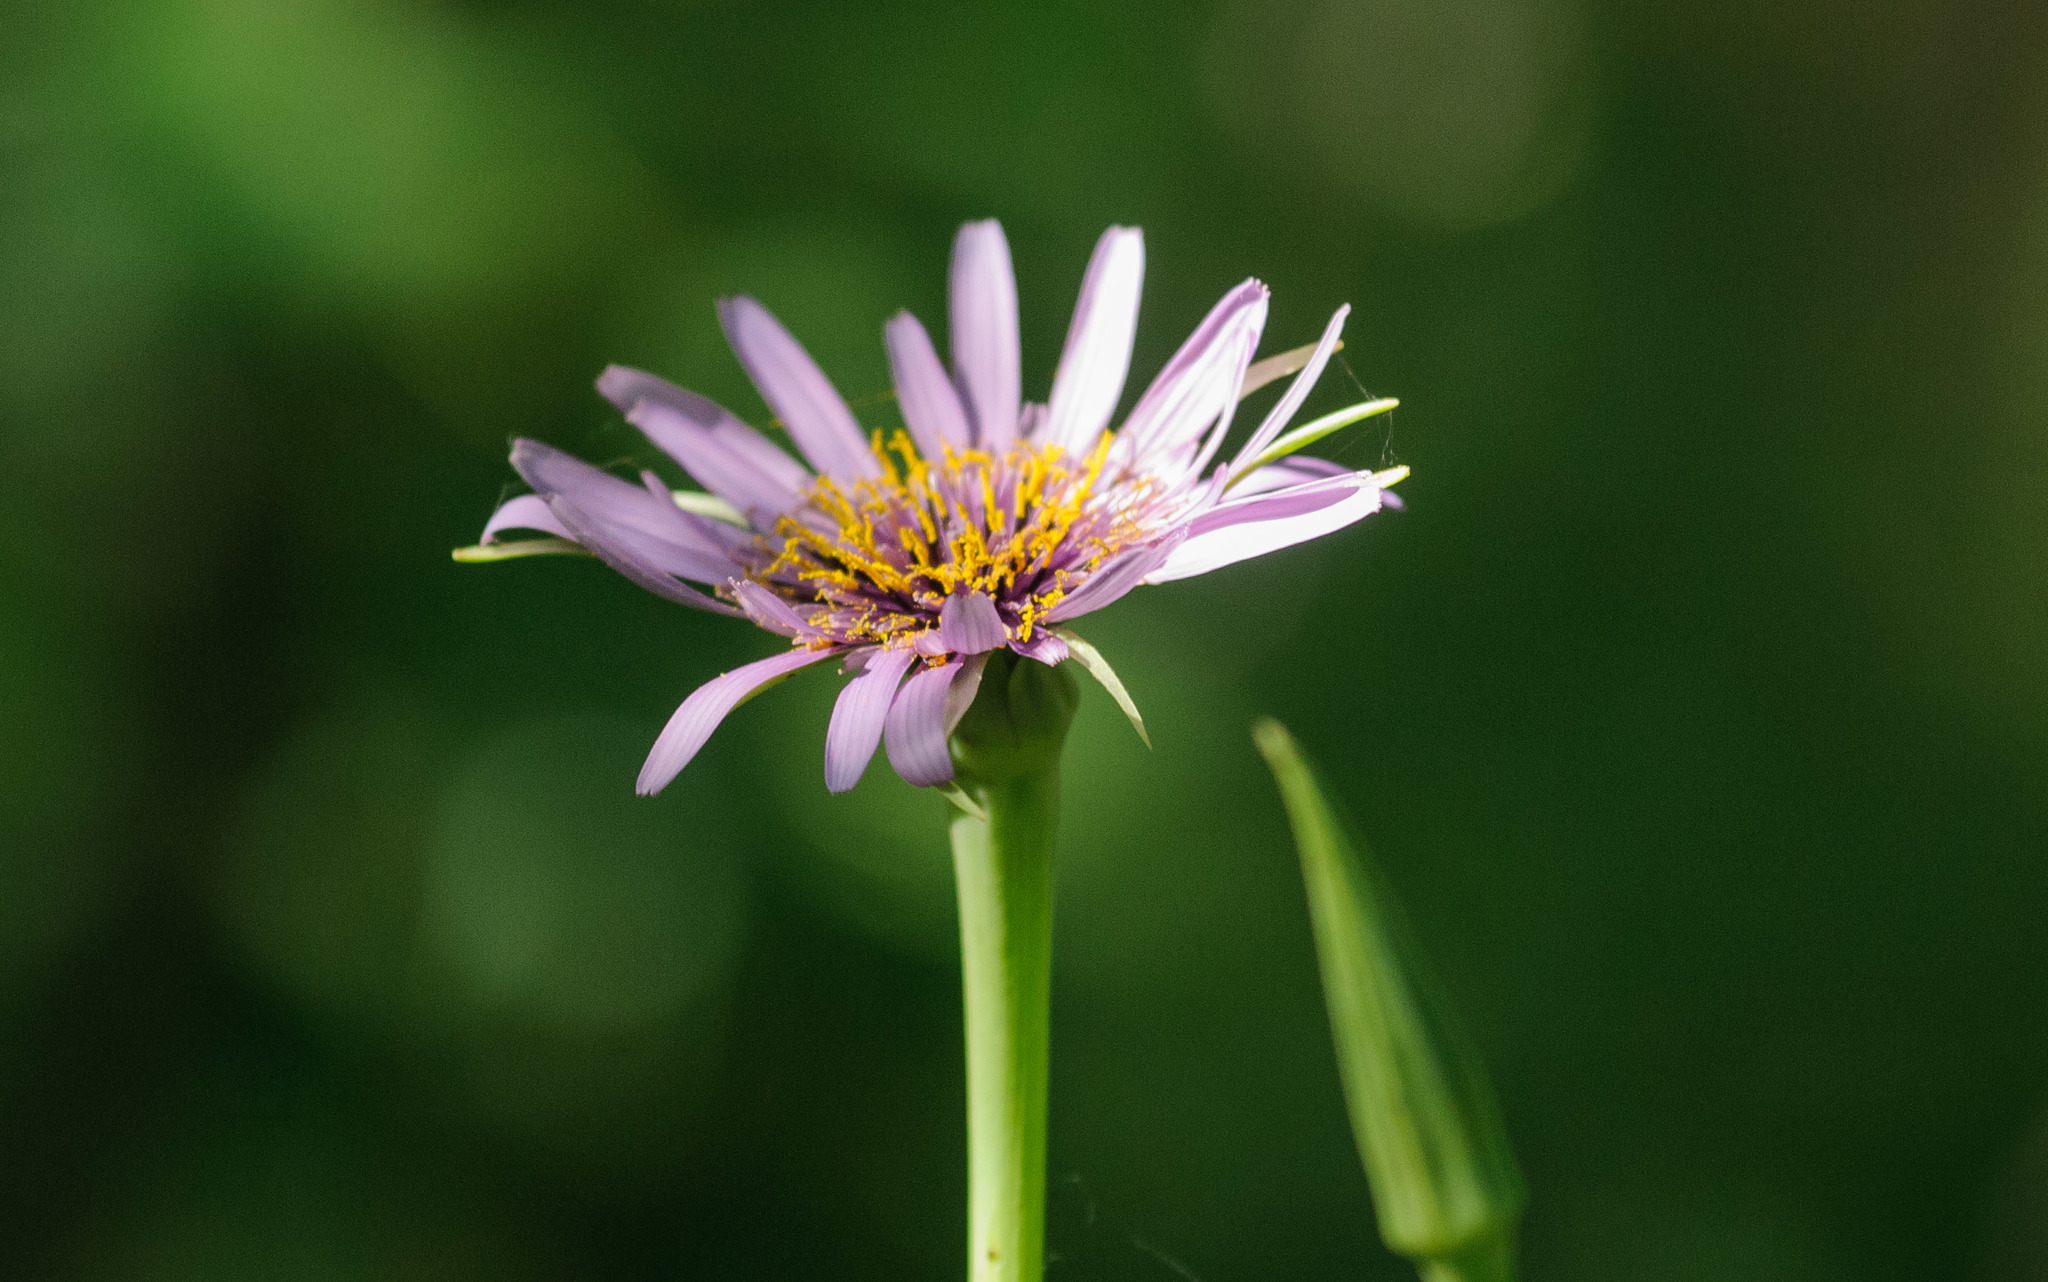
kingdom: Plantae
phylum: Tracheophyta
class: Magnoliopsida
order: Asterales
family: Asteraceae
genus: Tragopogon
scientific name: Tragopogon porrifolius
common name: Salsify
